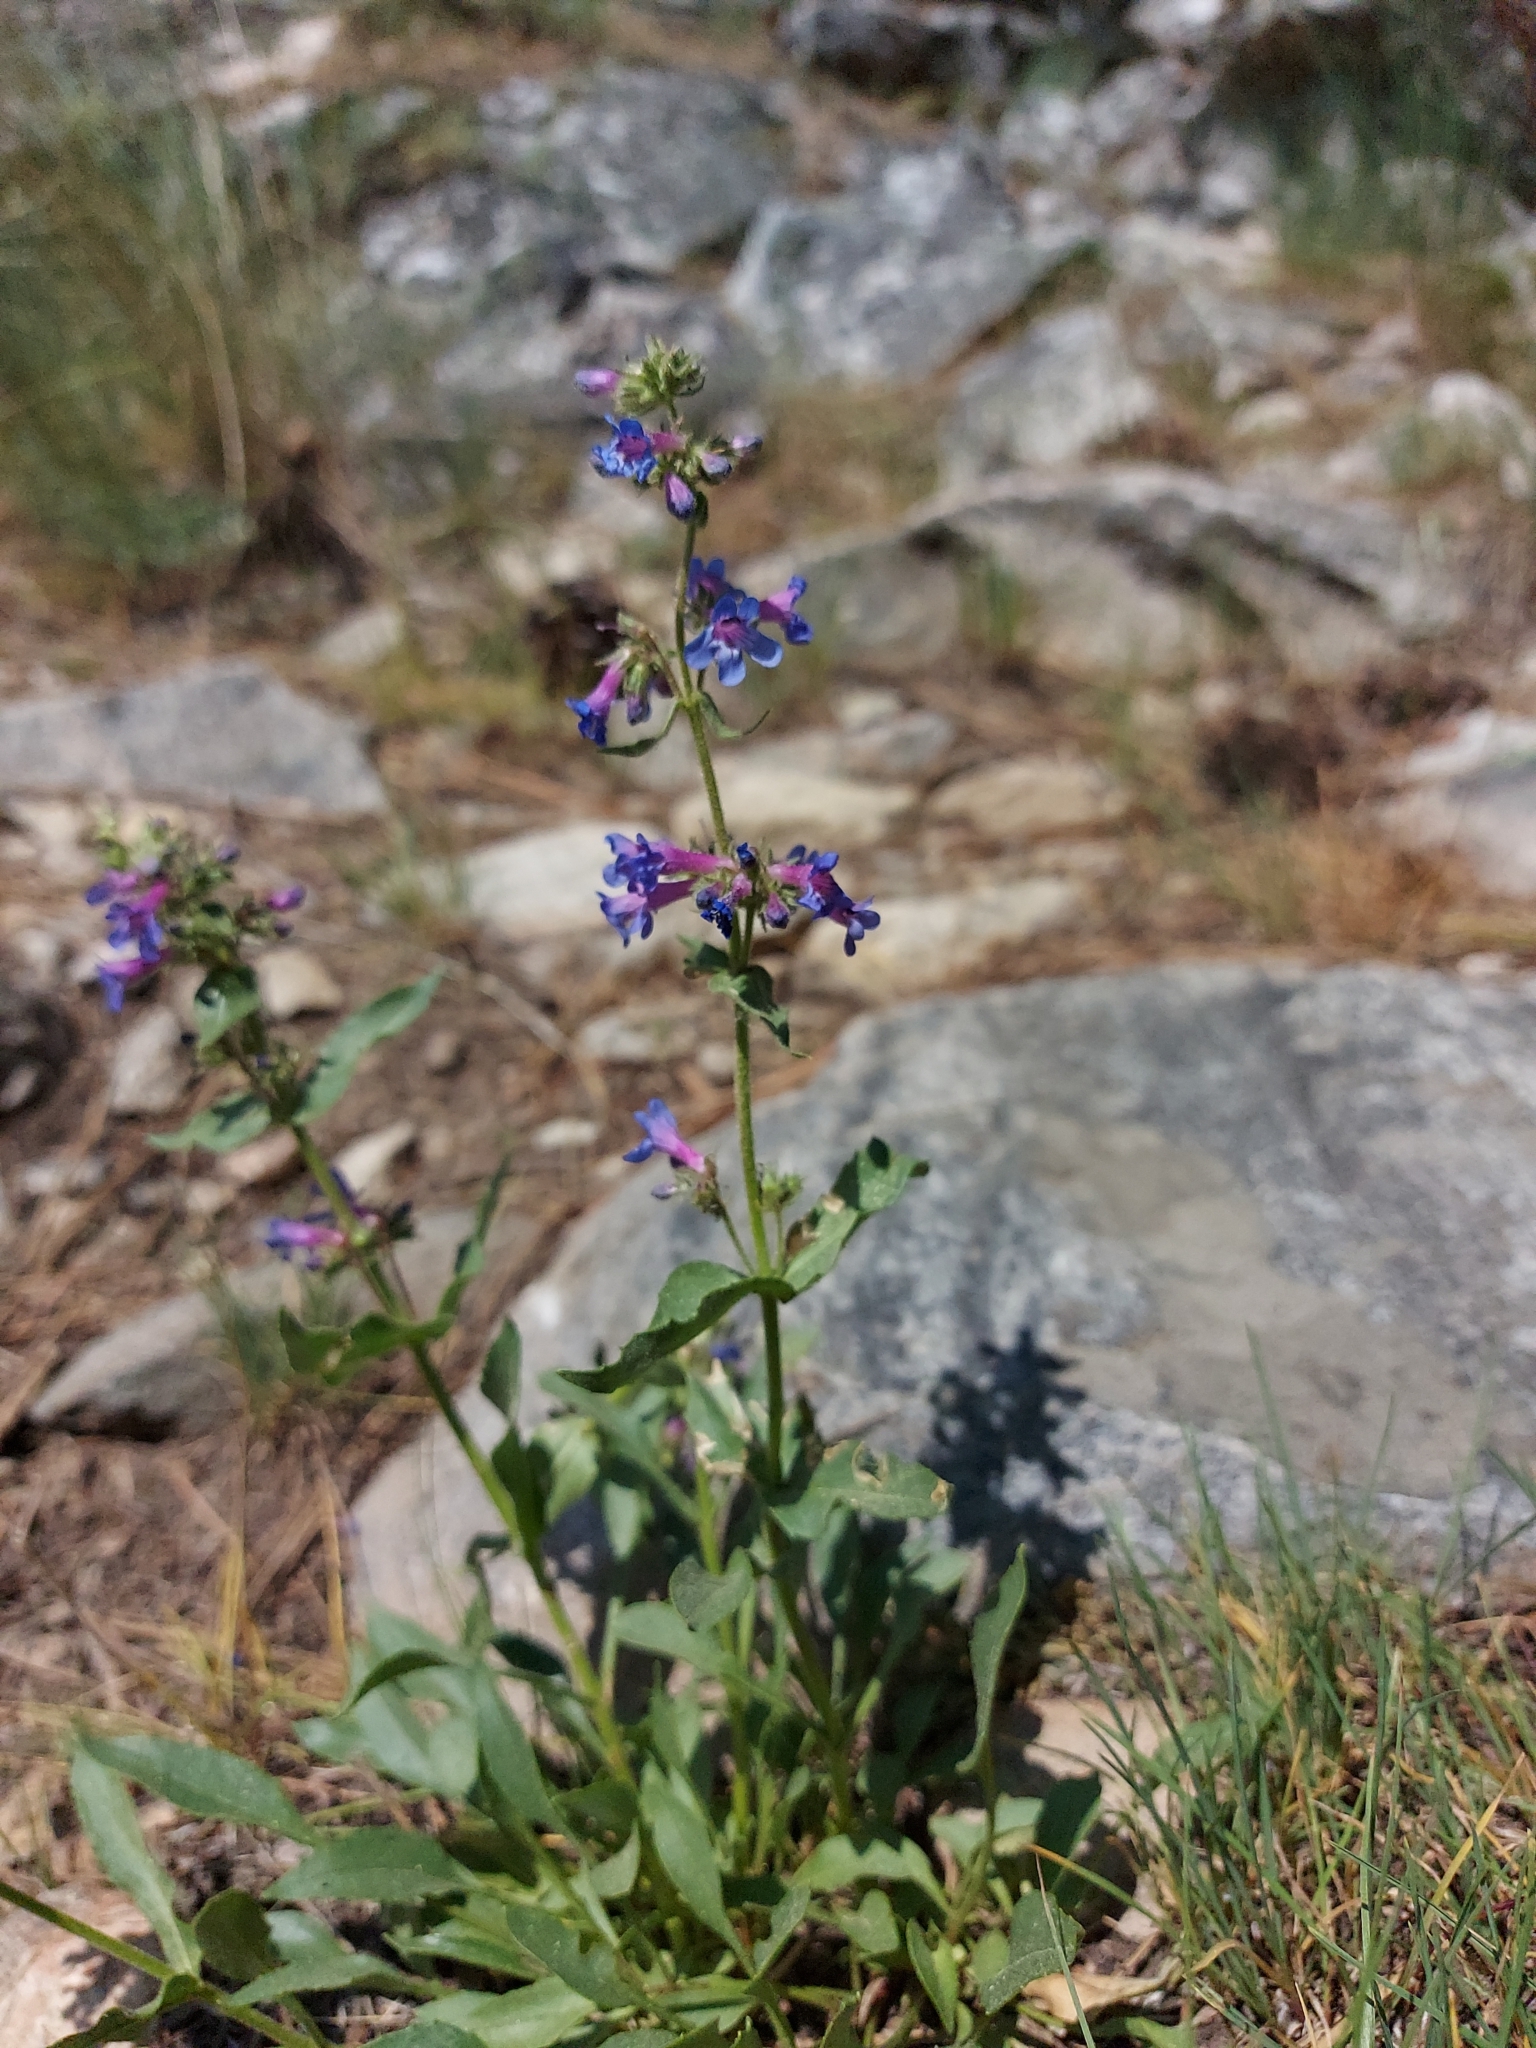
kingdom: Plantae
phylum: Tracheophyta
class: Magnoliopsida
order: Lamiales
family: Plantaginaceae
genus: Penstemon
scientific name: Penstemon pruinosus
